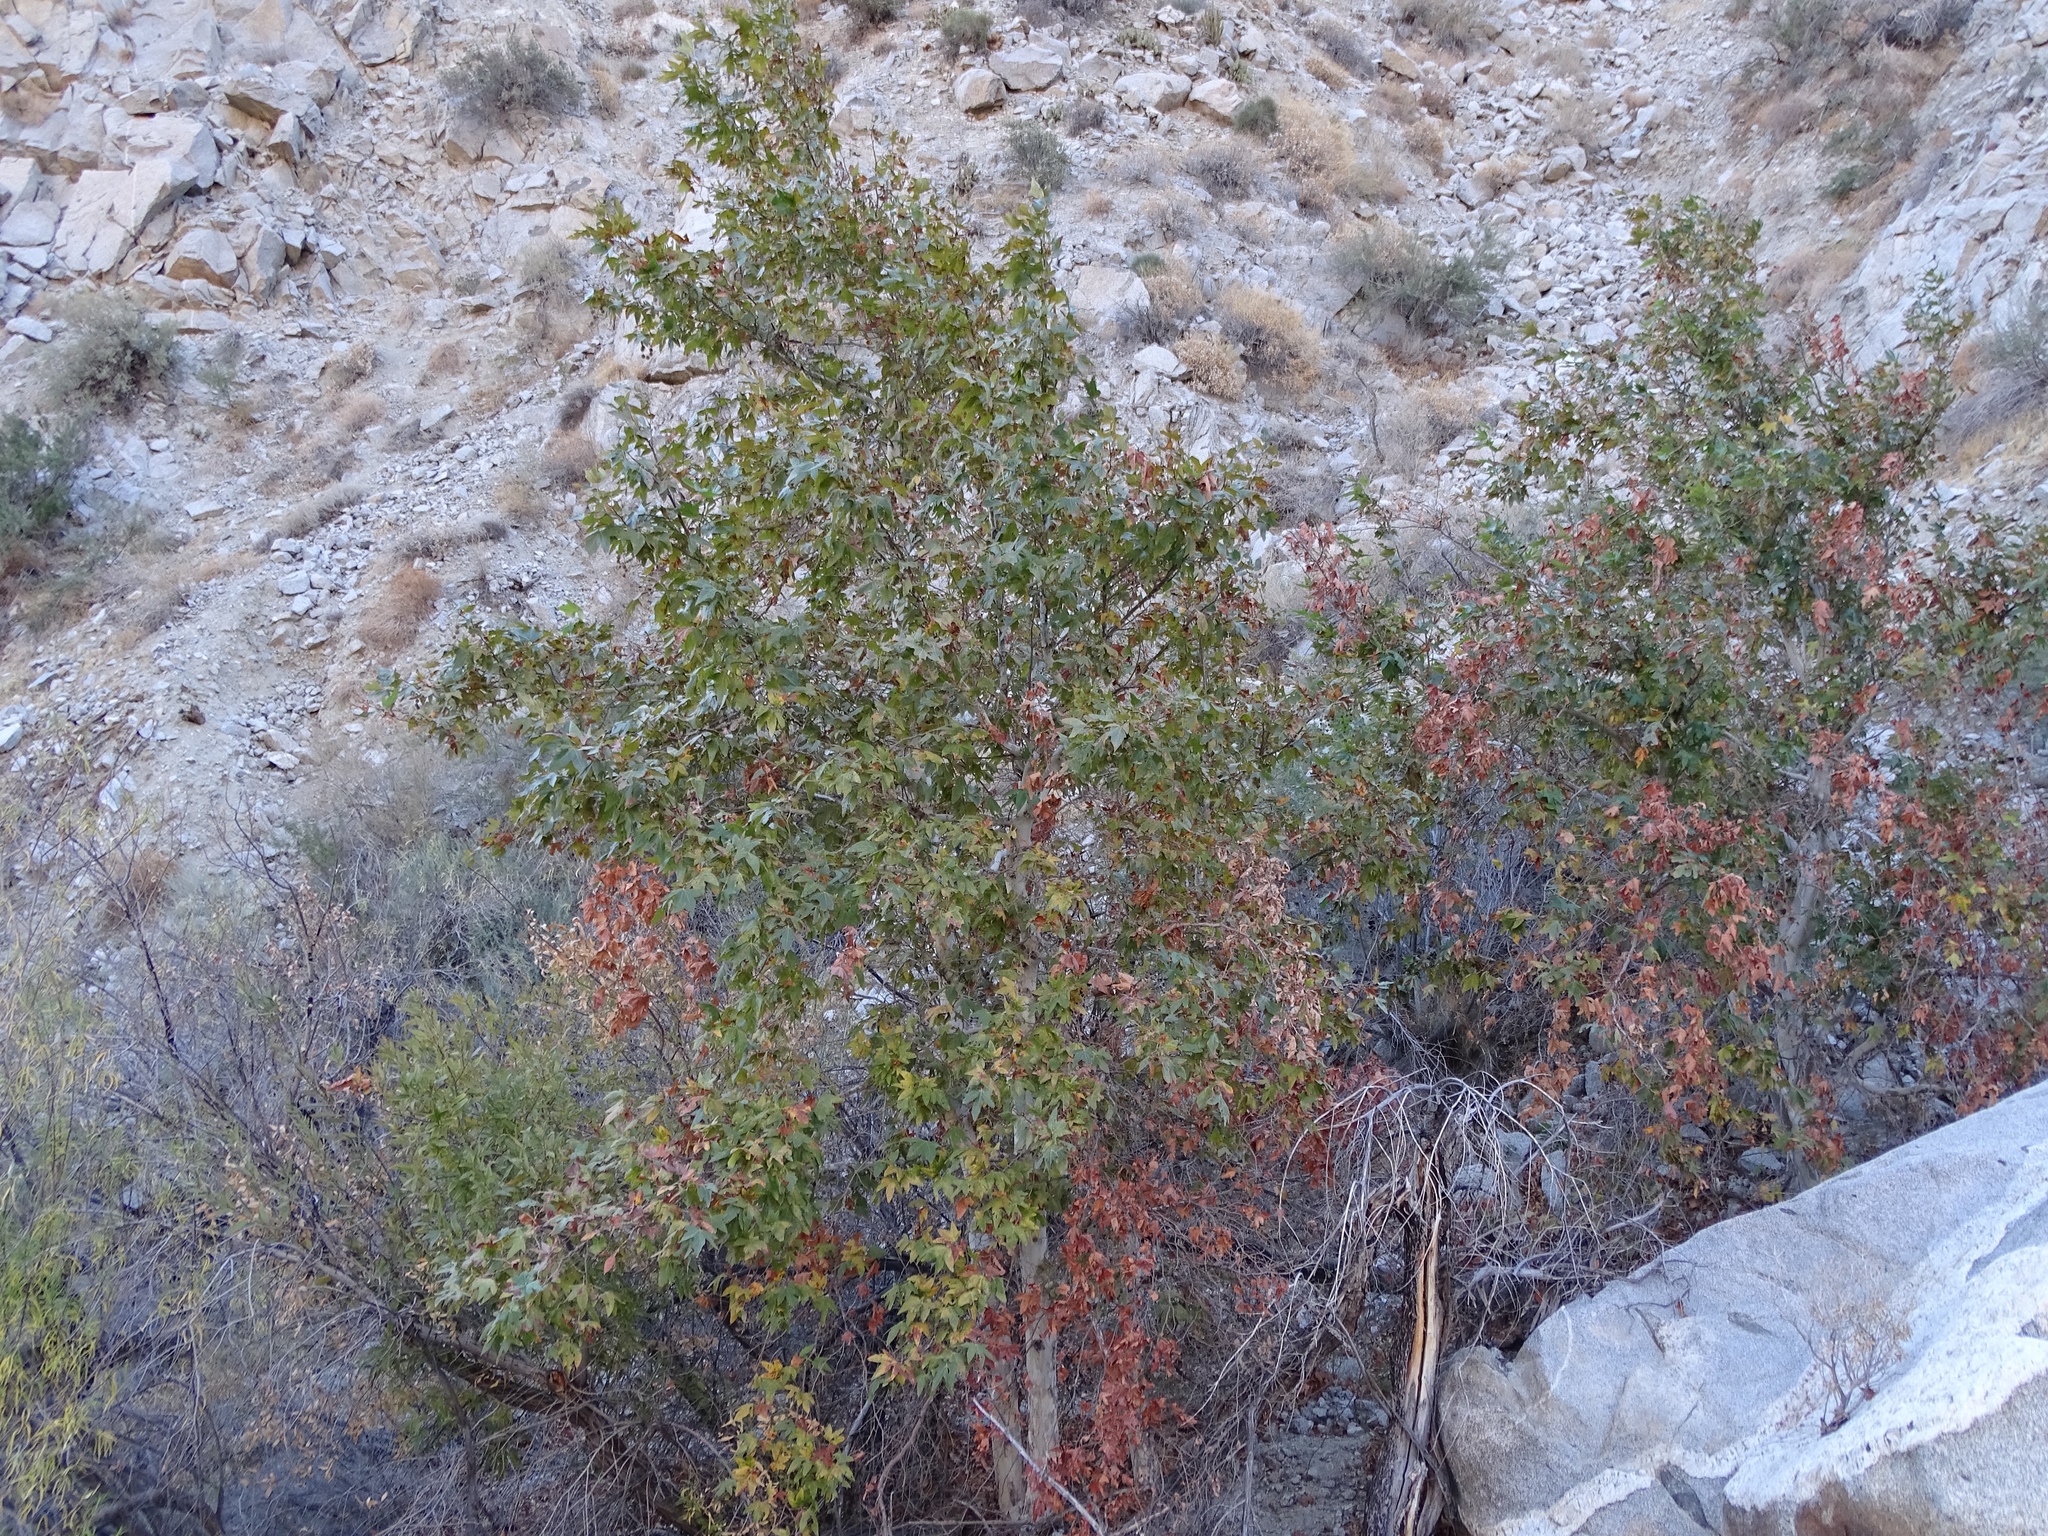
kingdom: Plantae
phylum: Tracheophyta
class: Magnoliopsida
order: Proteales
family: Platanaceae
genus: Platanus
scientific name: Platanus racemosa
